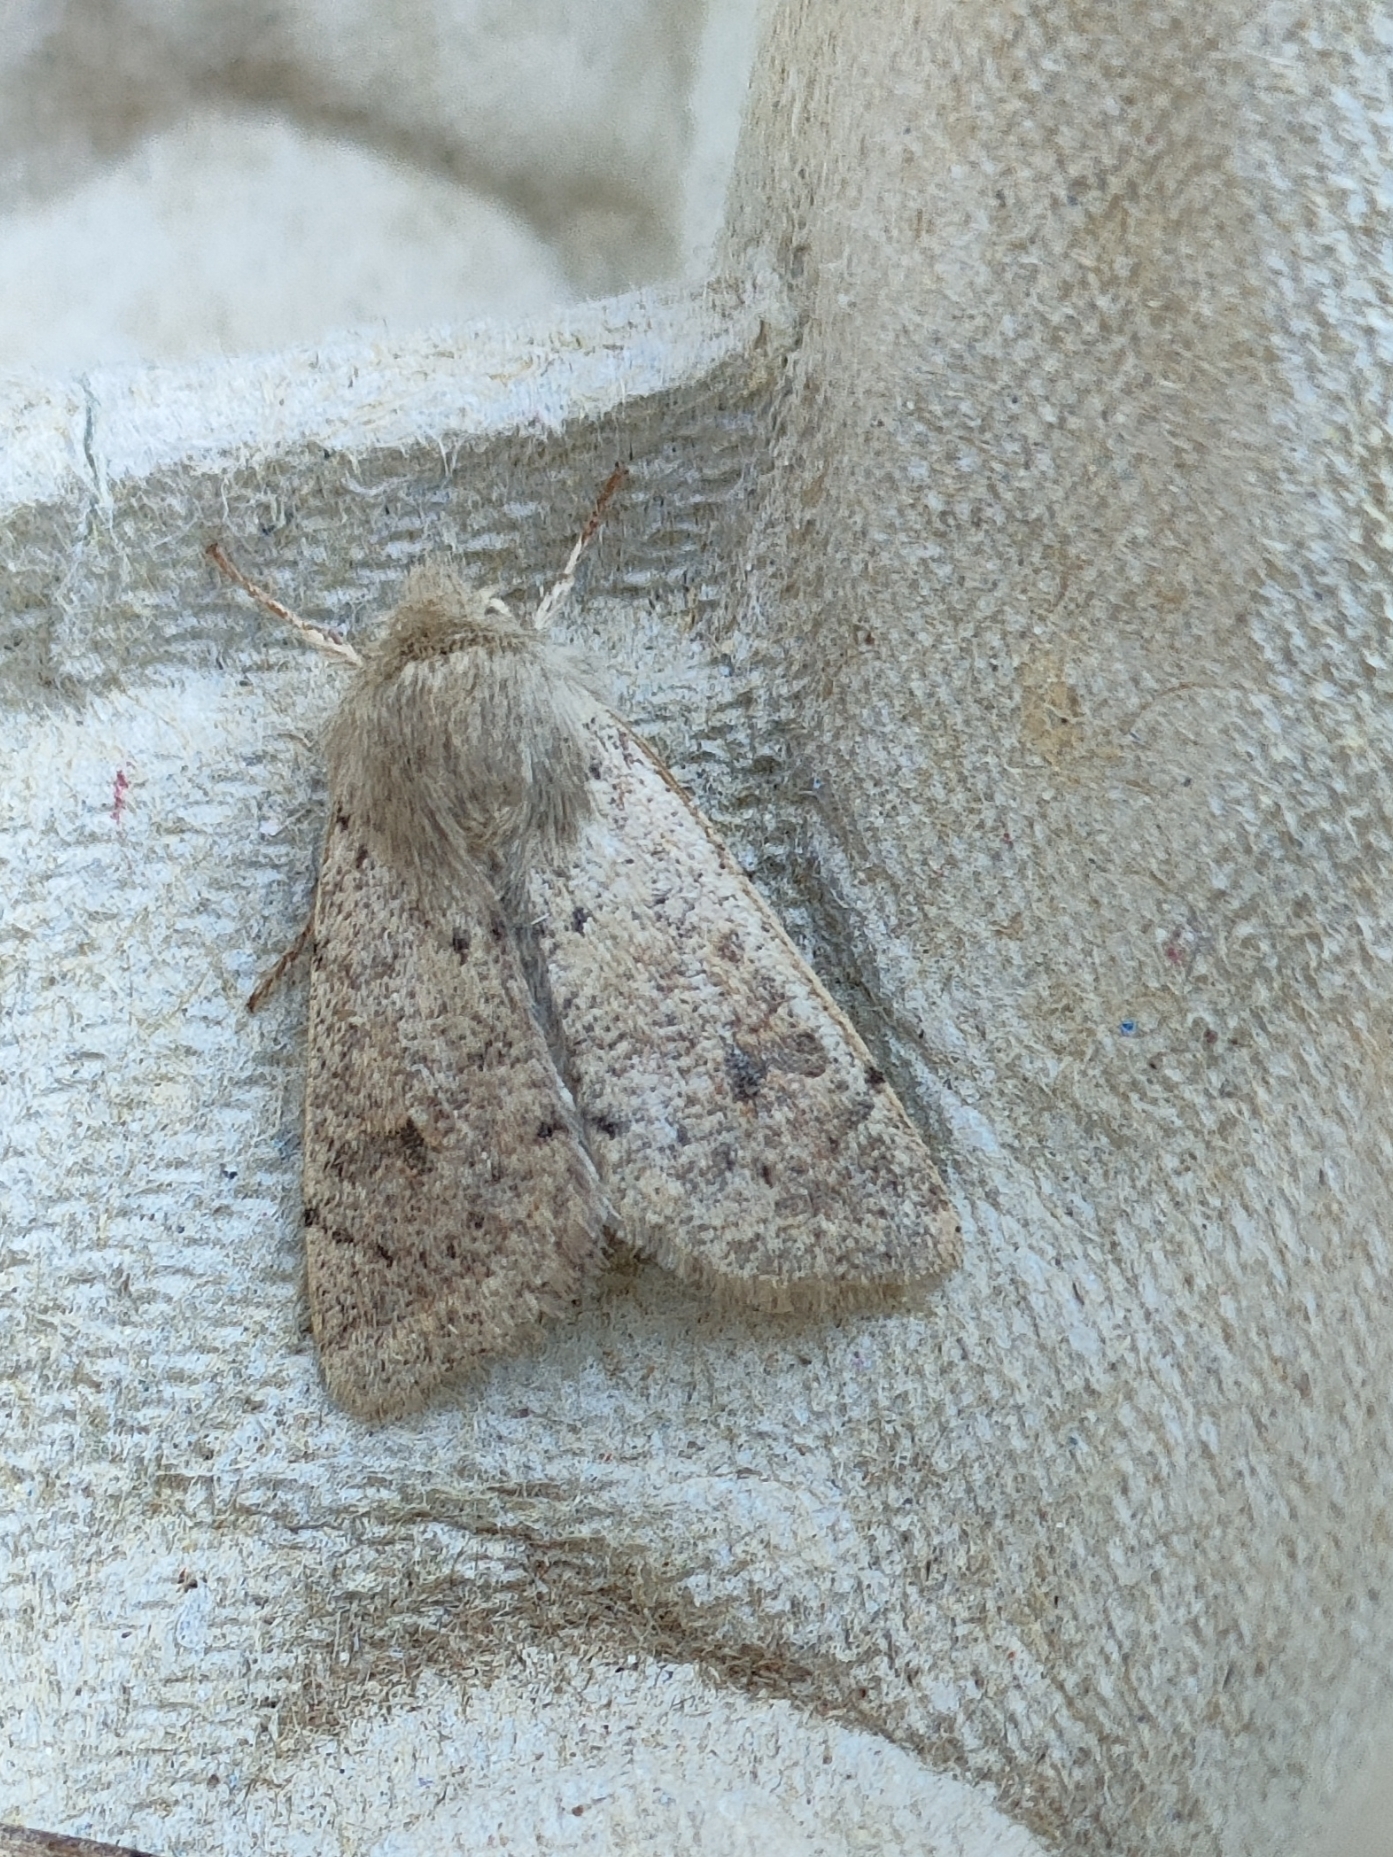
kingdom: Animalia
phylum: Arthropoda
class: Insecta
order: Lepidoptera
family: Noctuidae
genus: Orthosia
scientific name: Orthosia cruda
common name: Small quaker
